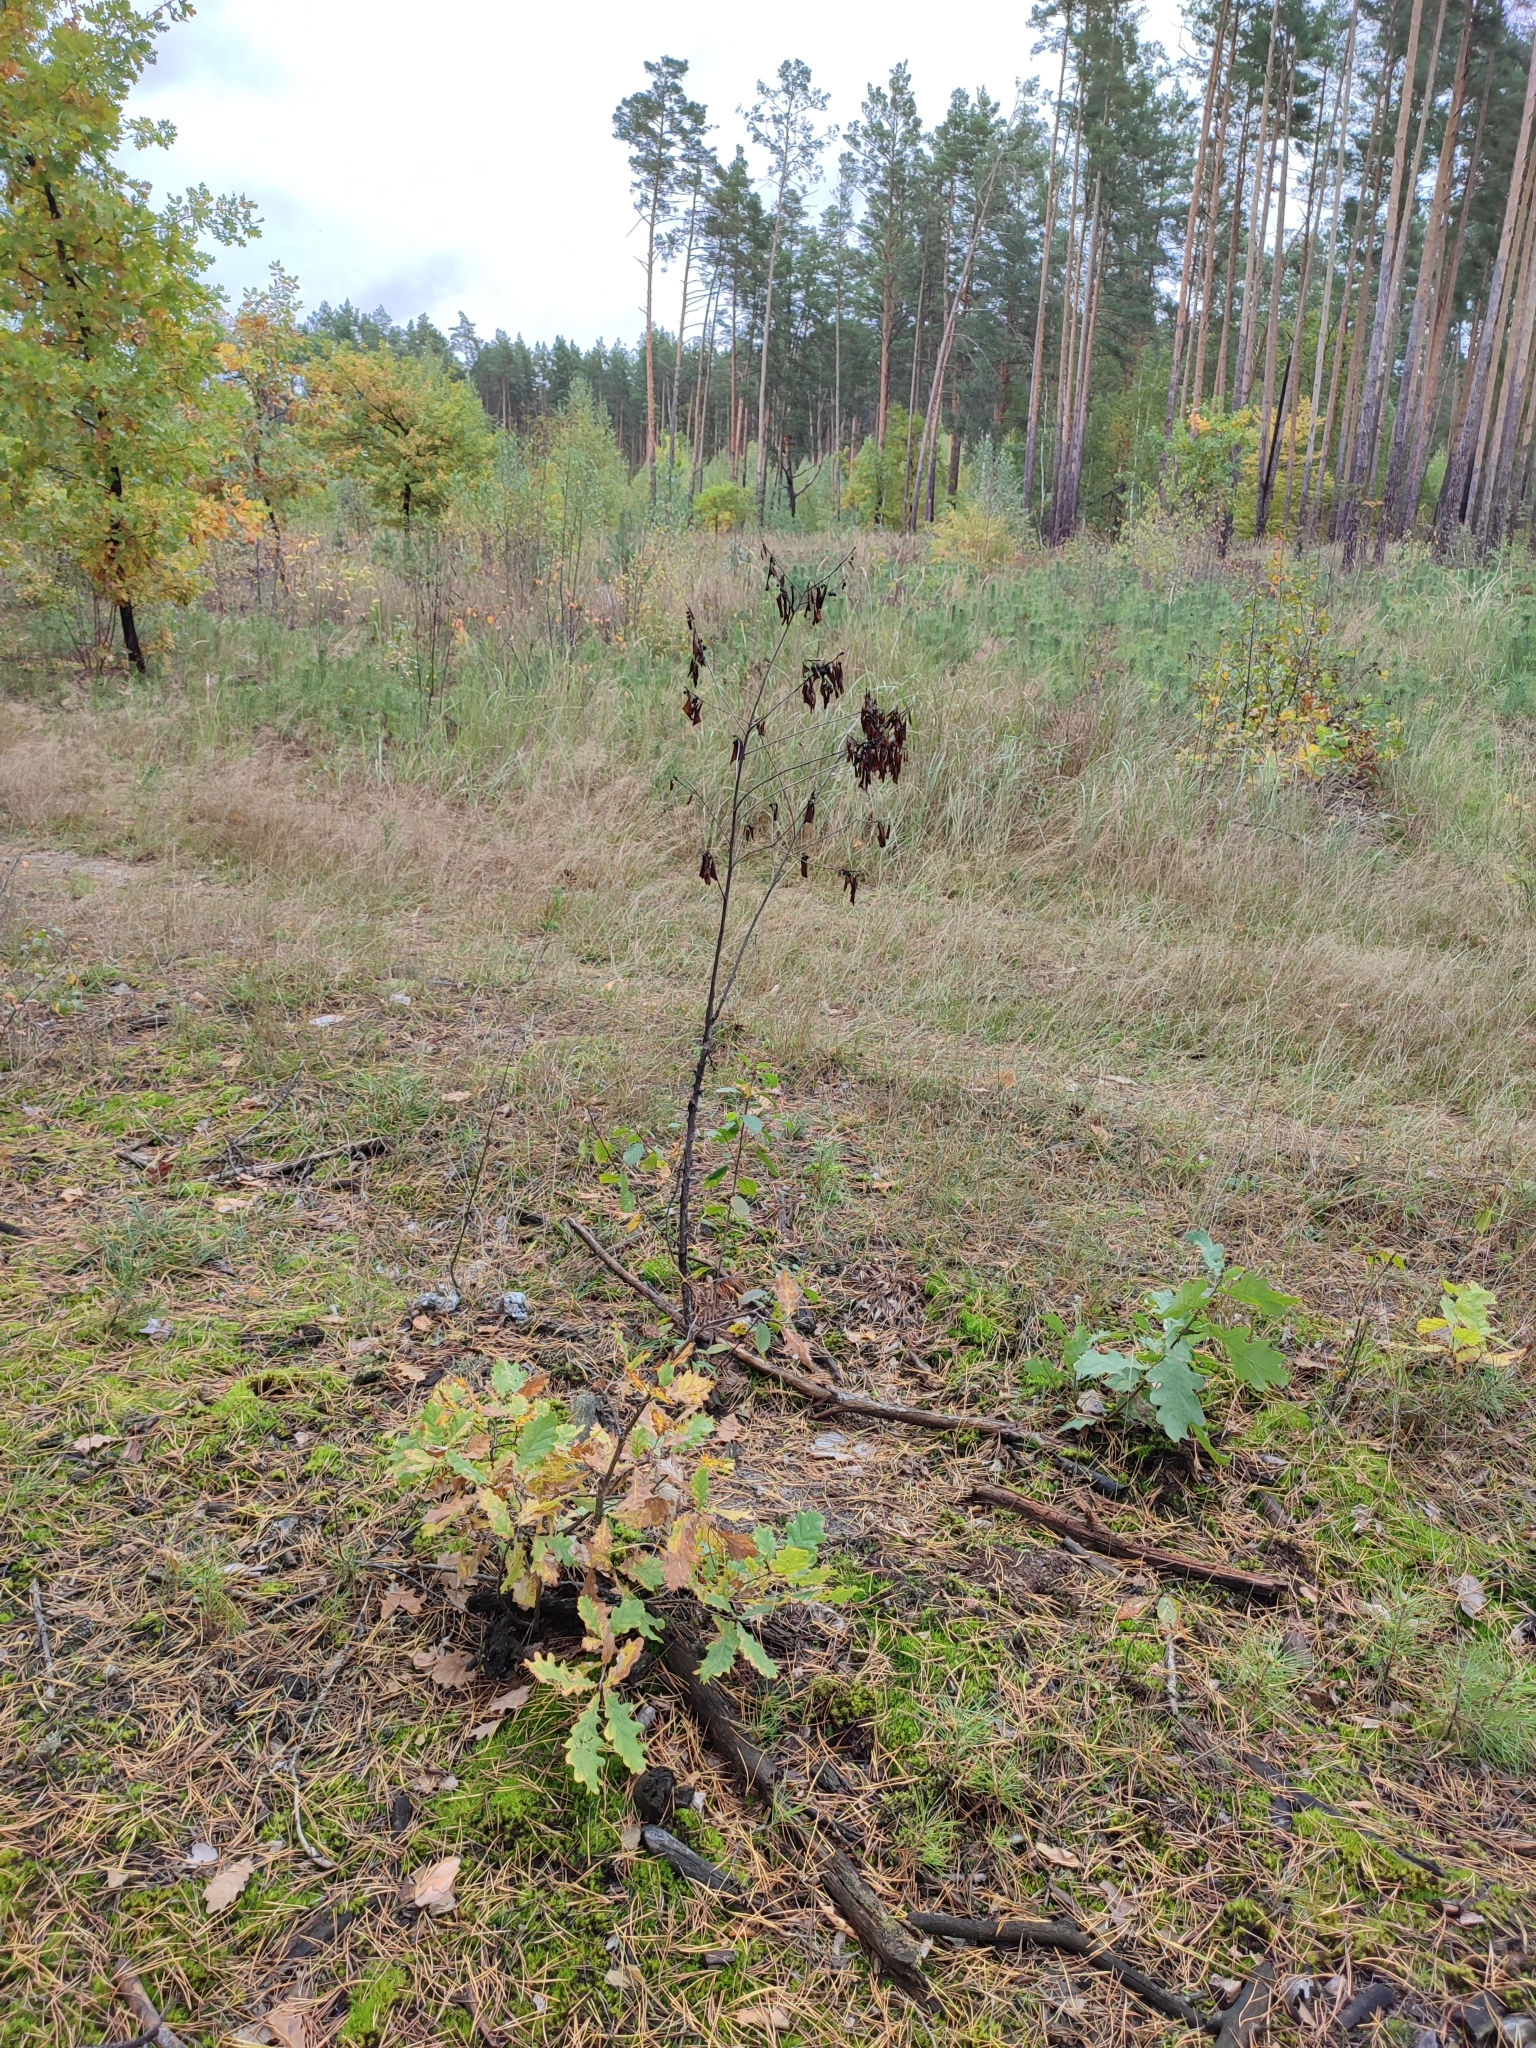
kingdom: Plantae
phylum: Tracheophyta
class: Magnoliopsida
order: Fagales
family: Fagaceae
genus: Quercus
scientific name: Quercus robur
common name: Pedunculate oak
